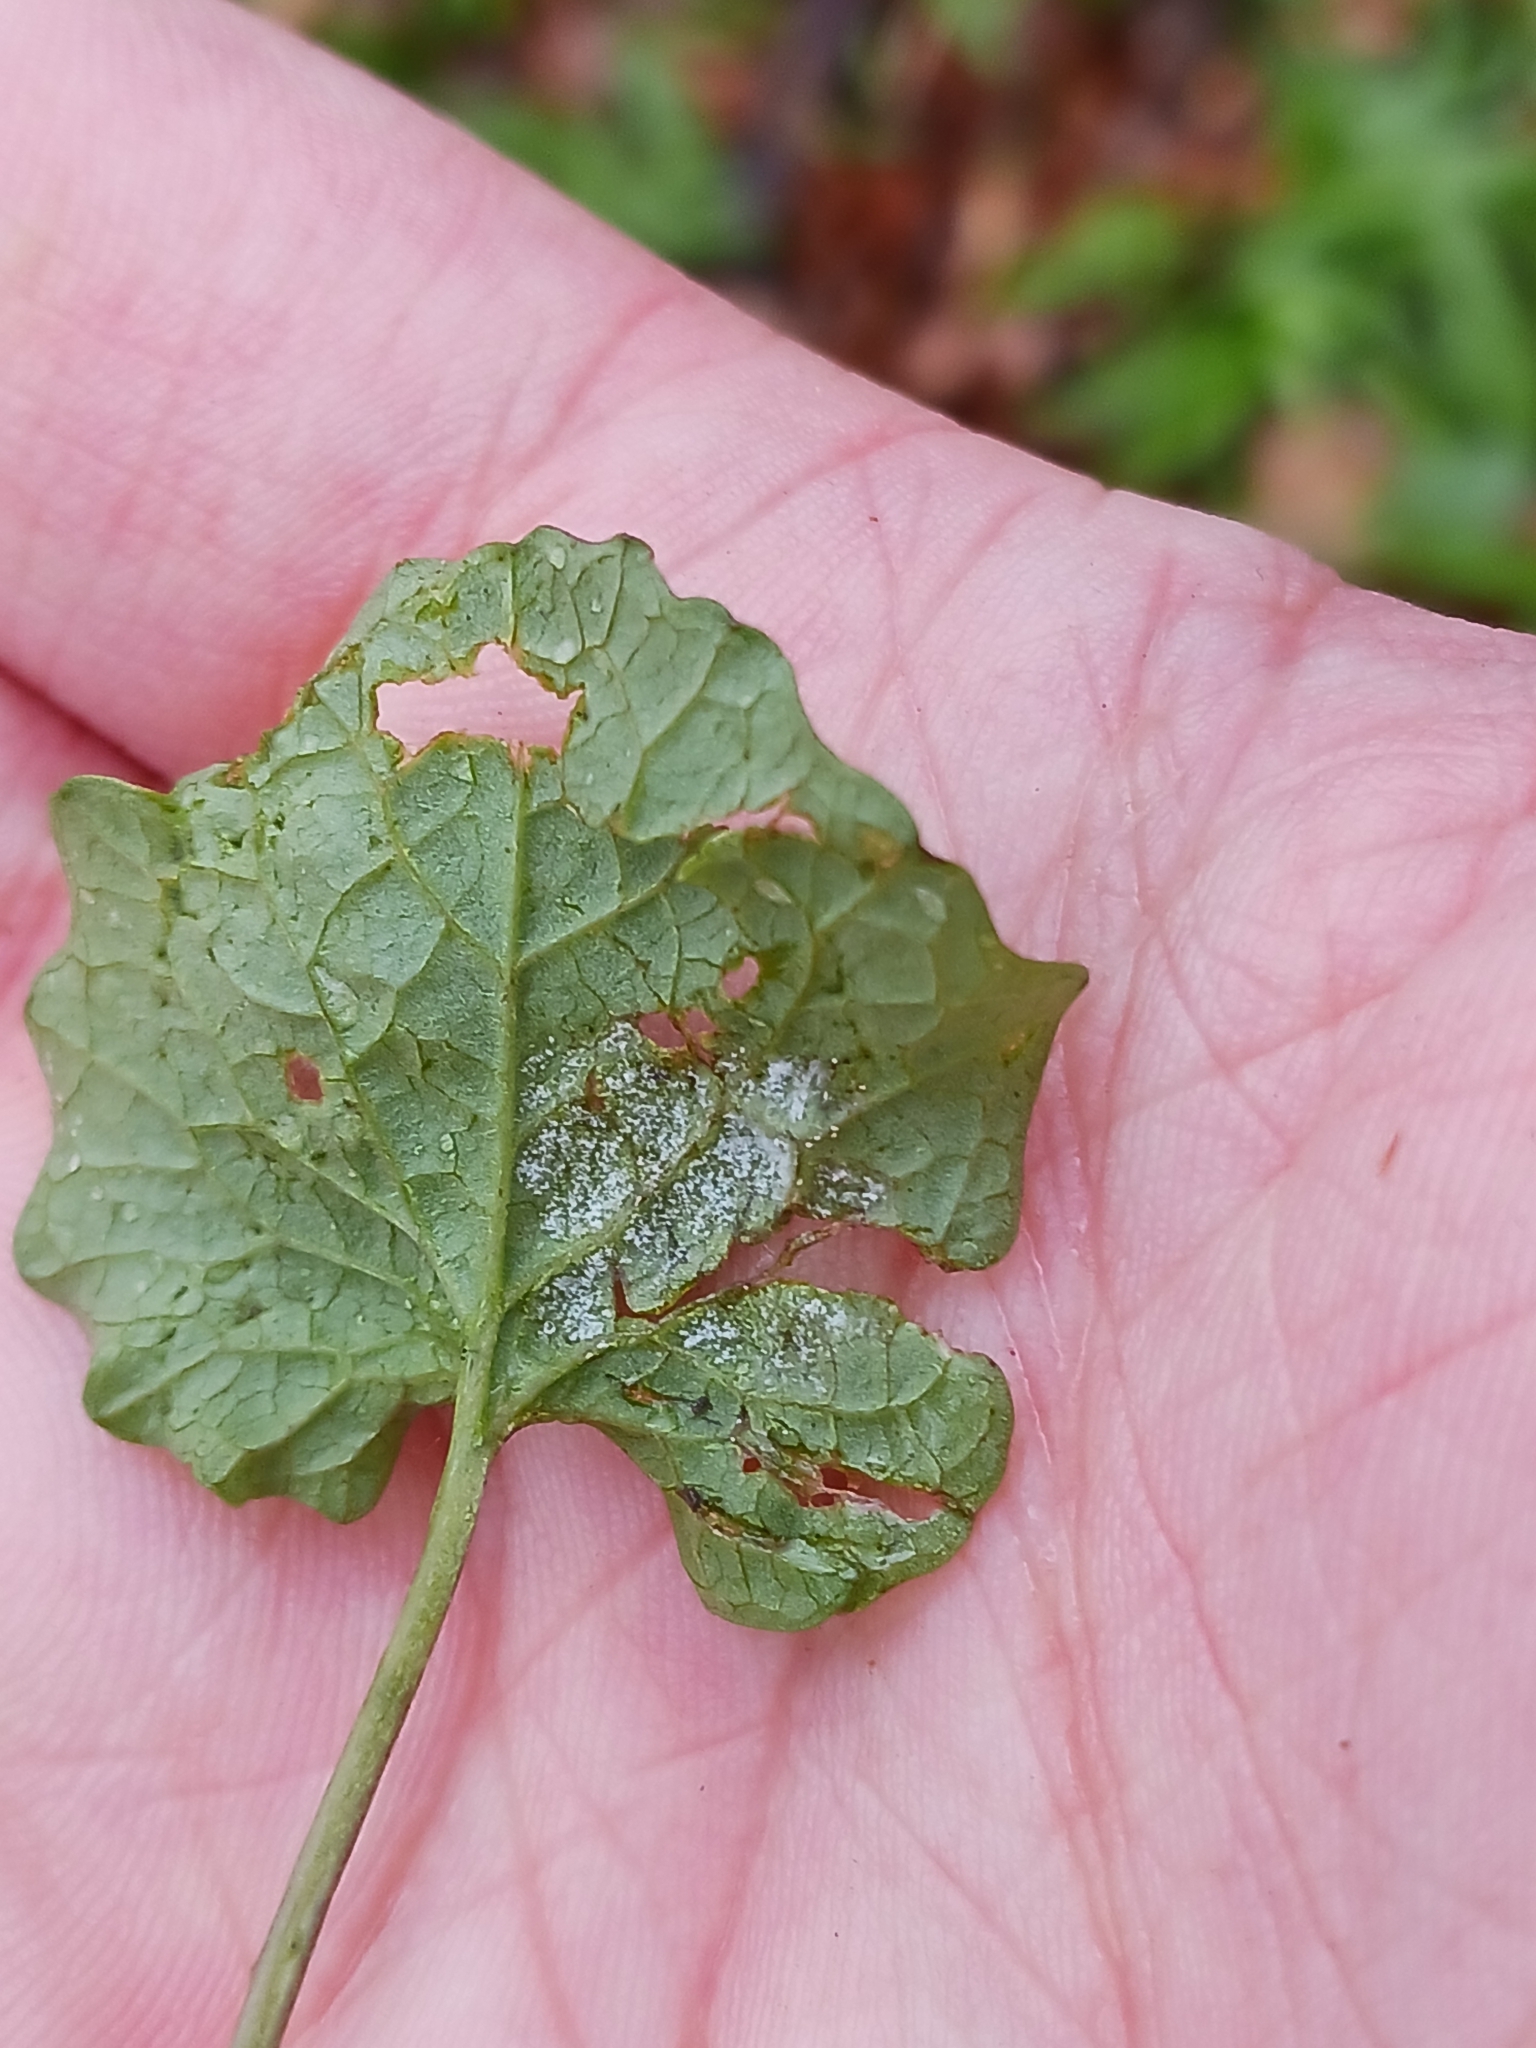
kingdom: Chromista
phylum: Oomycota
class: Peronosporea
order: Peronosporales
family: Peronosporaceae
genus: Hyaloperonospora
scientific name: Hyaloperonospora niessliana
